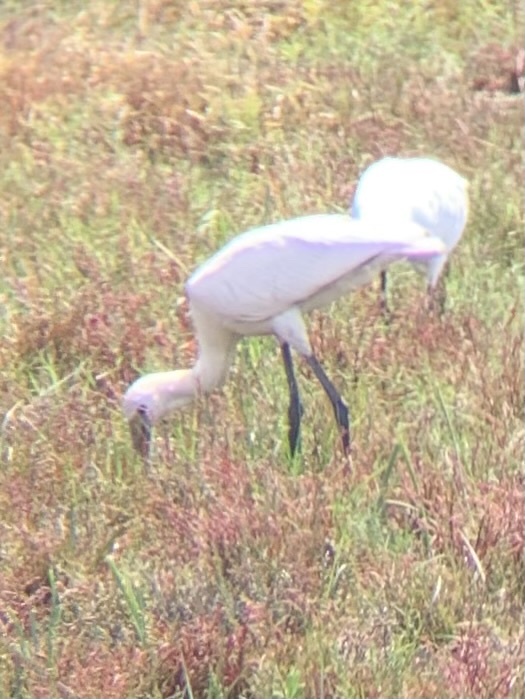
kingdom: Animalia
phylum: Chordata
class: Aves
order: Pelecaniformes
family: Threskiornithidae
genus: Platalea
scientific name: Platalea leucorodia
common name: Eurasian spoonbill
